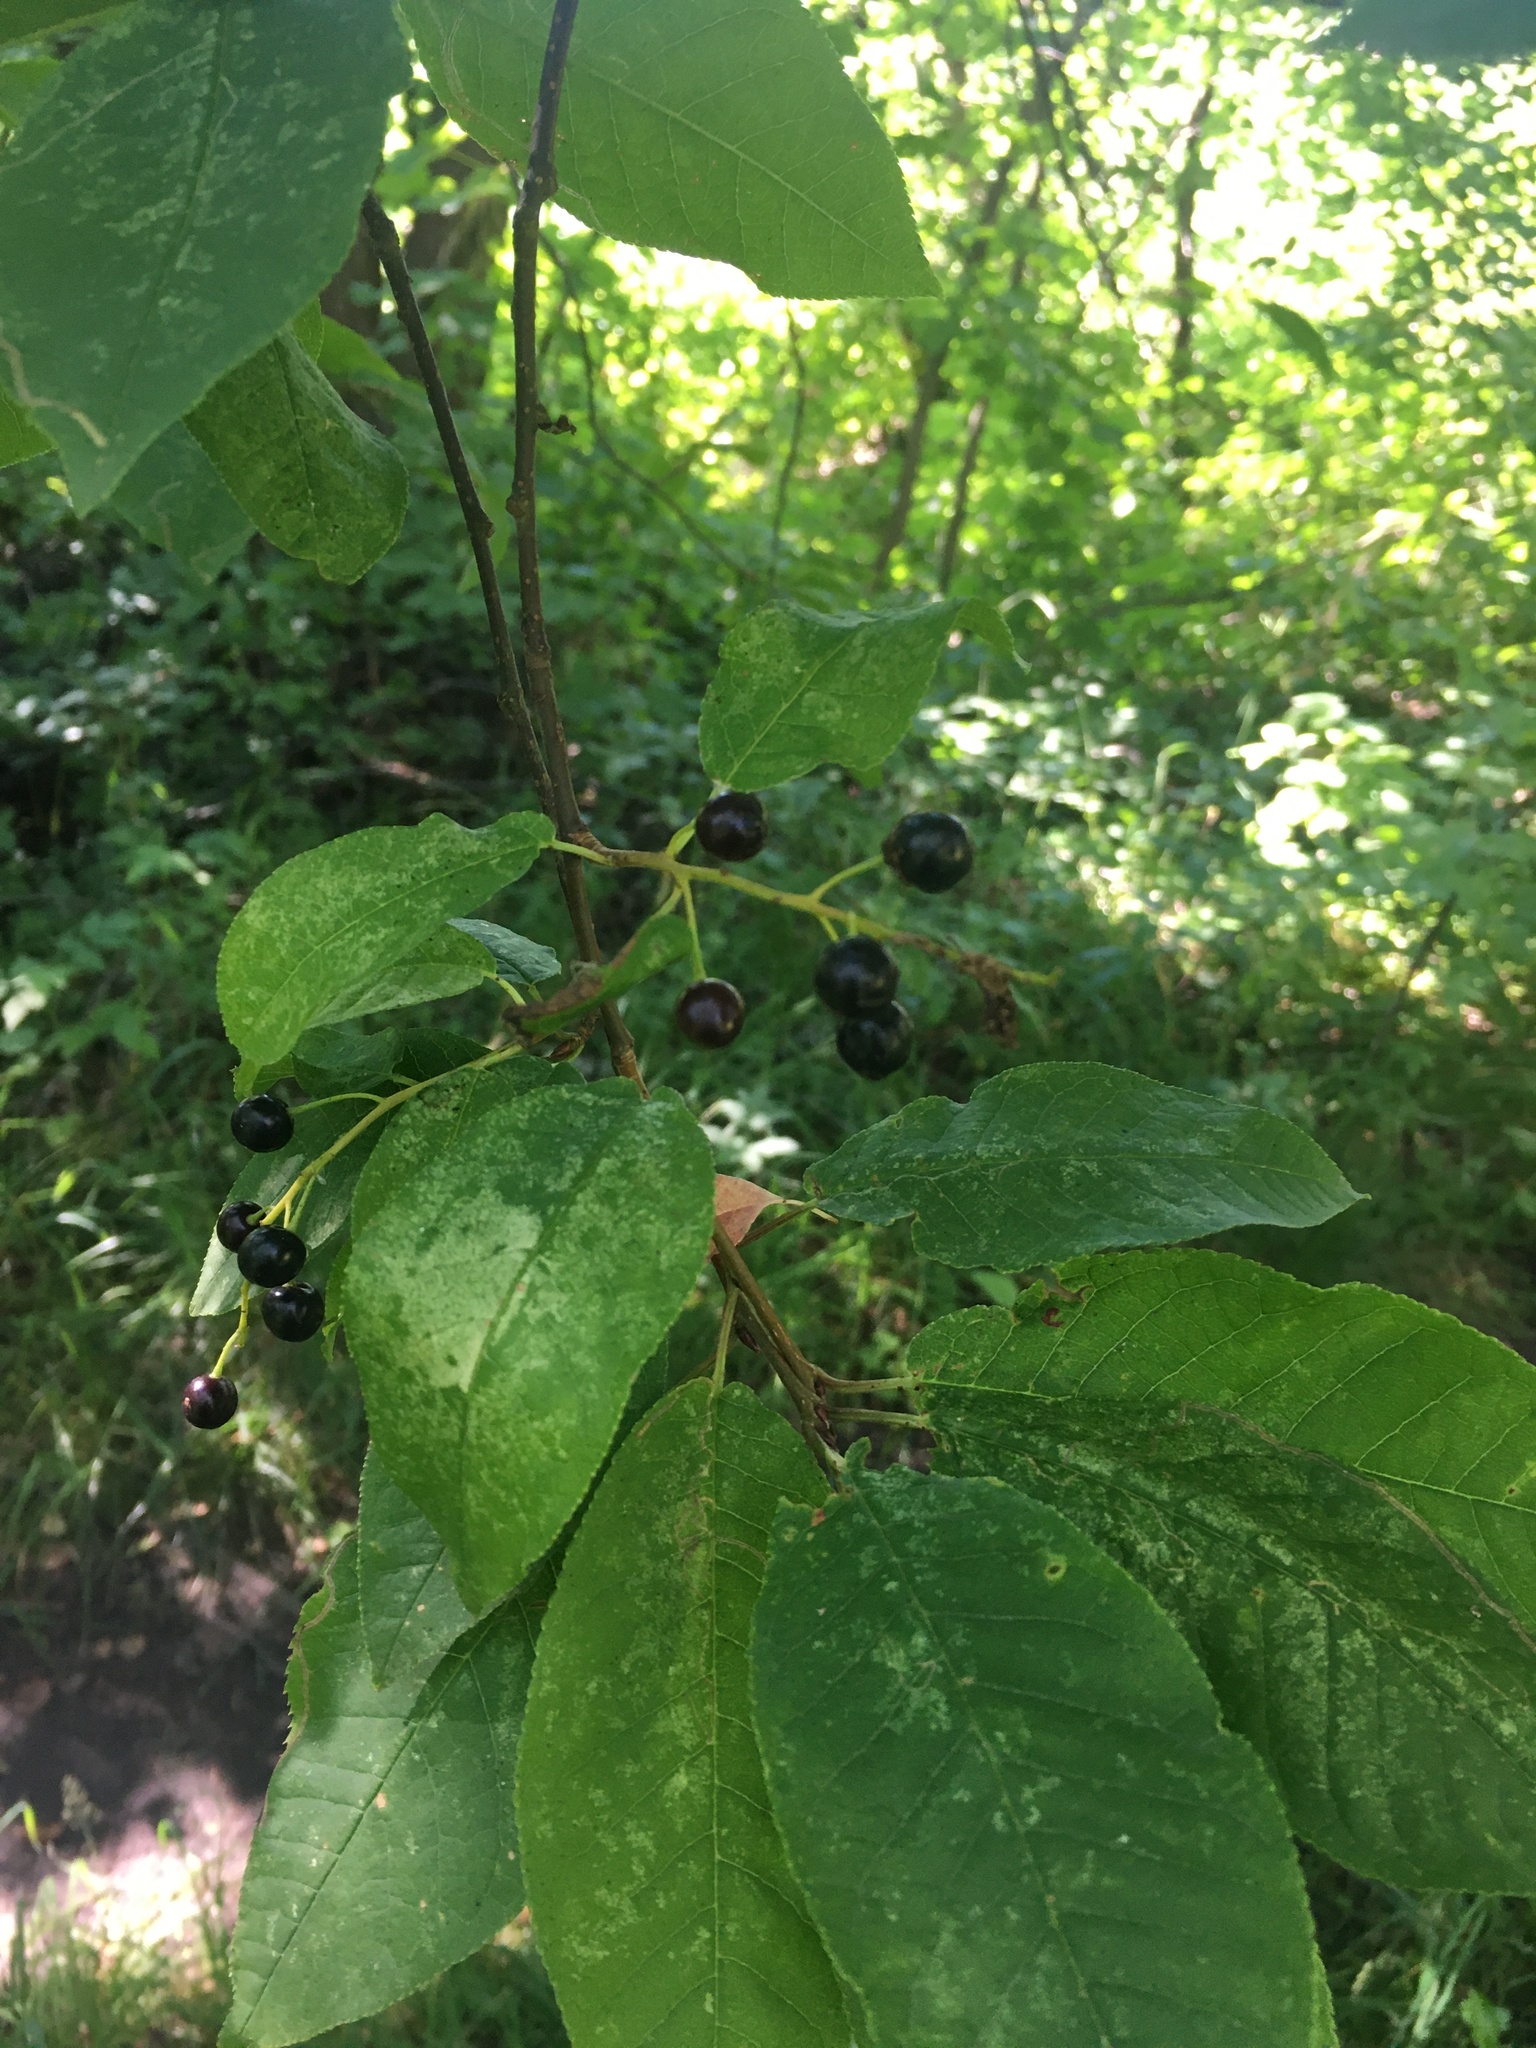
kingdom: Plantae
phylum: Tracheophyta
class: Magnoliopsida
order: Rosales
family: Rosaceae
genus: Prunus
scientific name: Prunus padus
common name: Bird cherry
